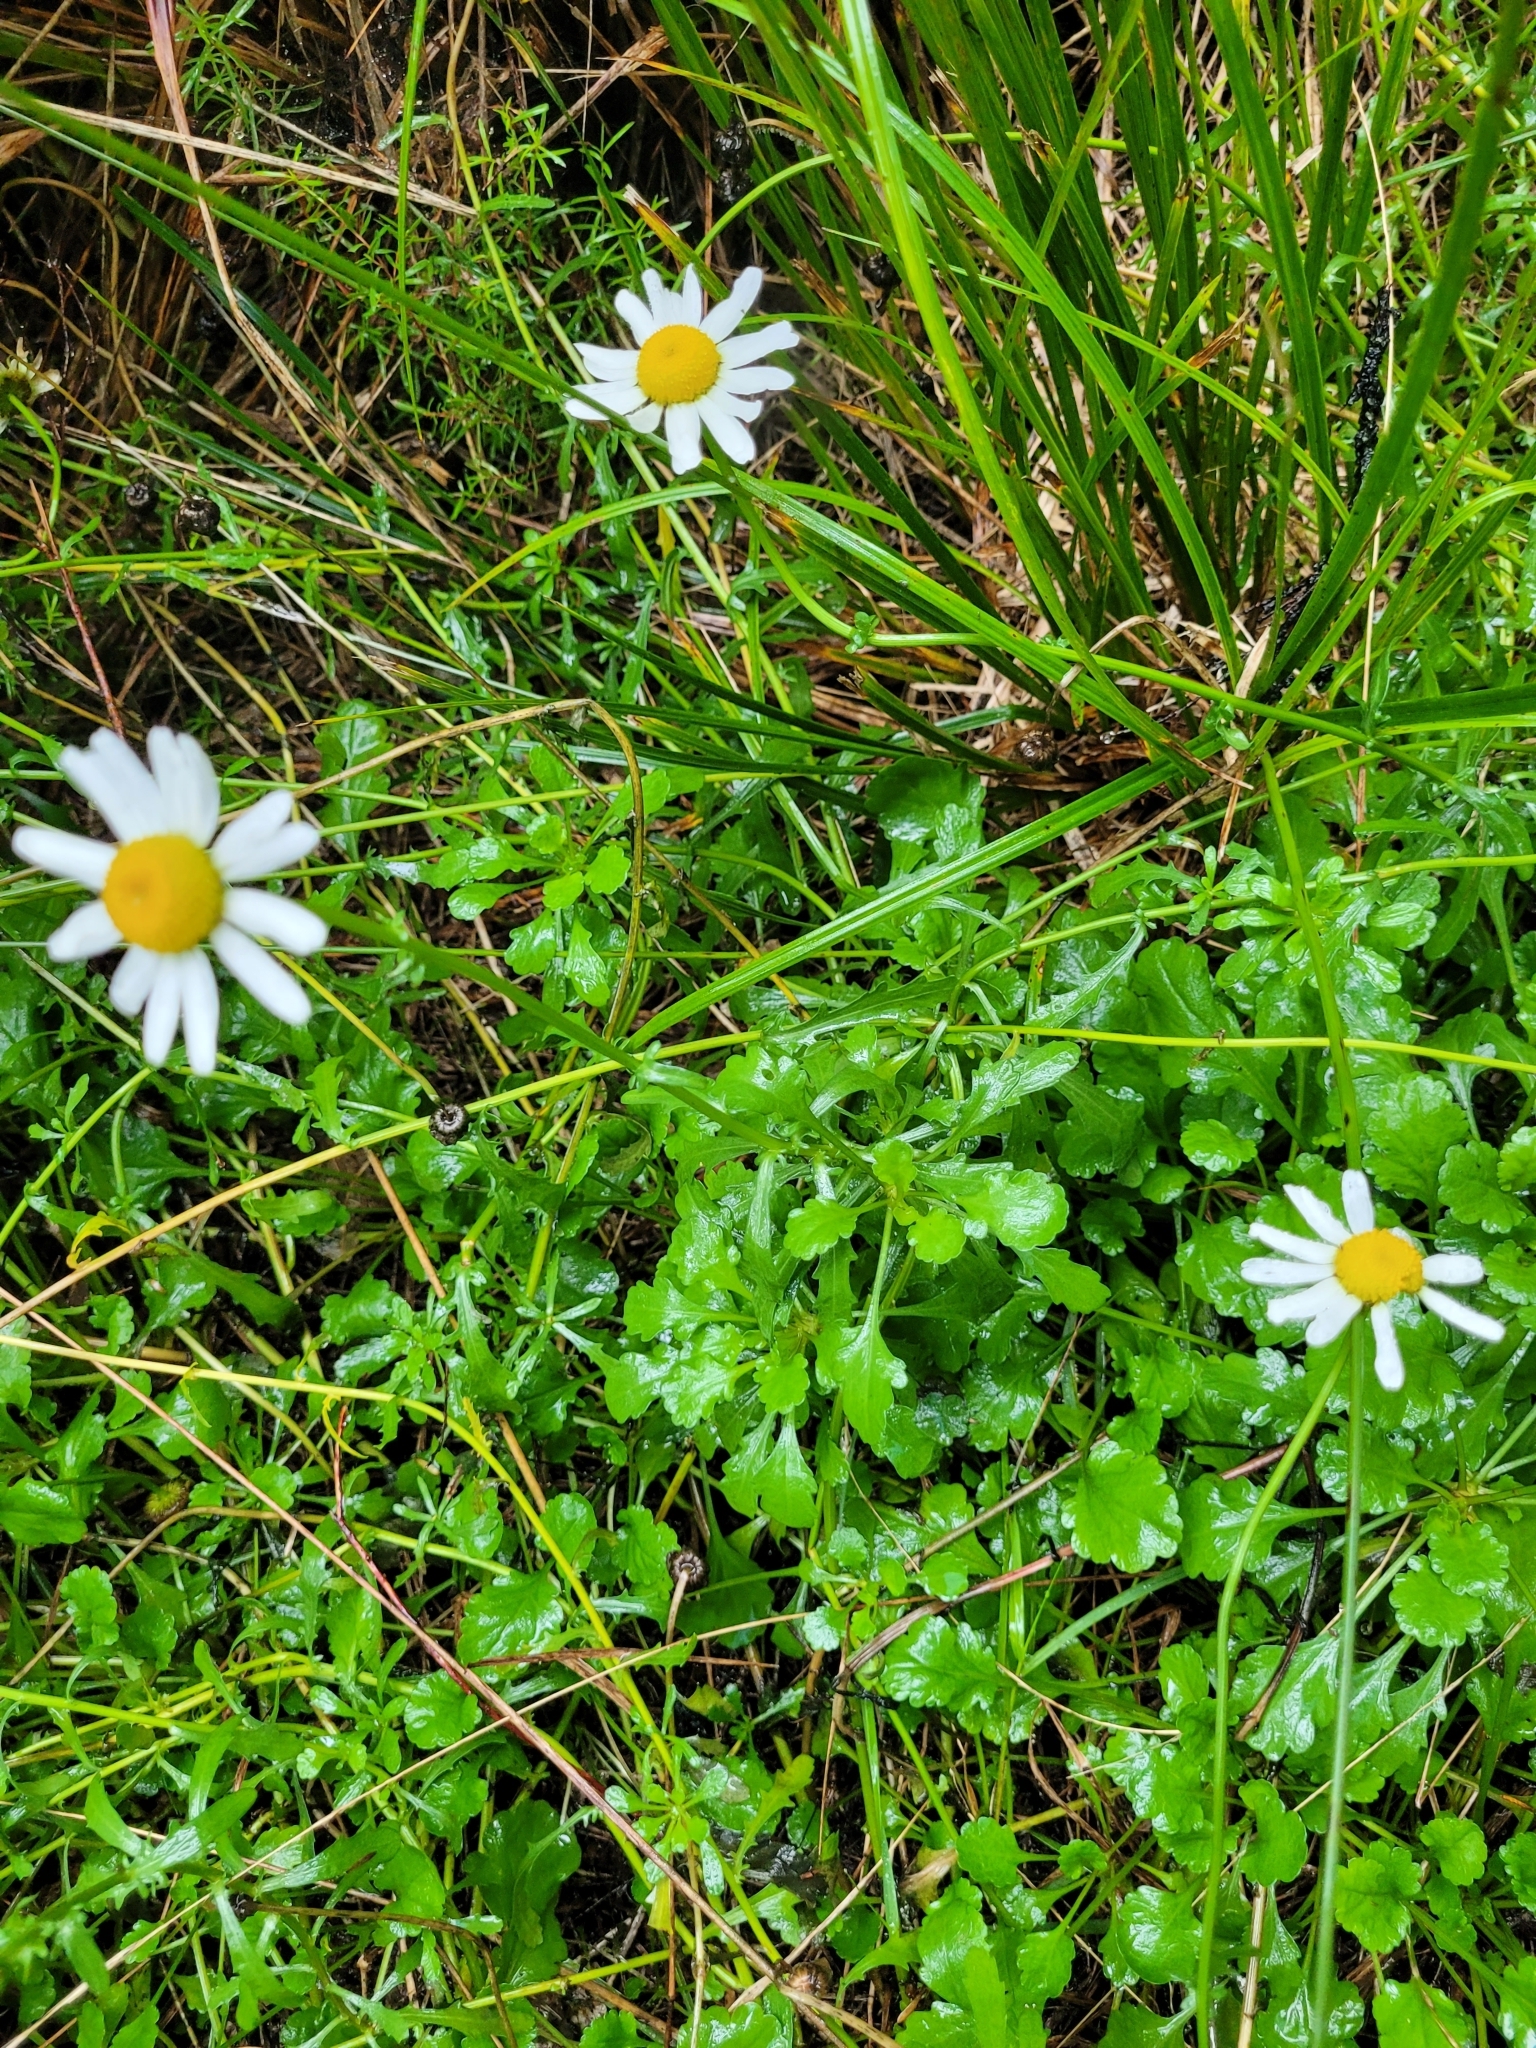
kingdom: Plantae
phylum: Tracheophyta
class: Magnoliopsida
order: Asterales
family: Asteraceae
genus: Leucanthemum
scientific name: Leucanthemum vulgare
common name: Oxeye daisy
